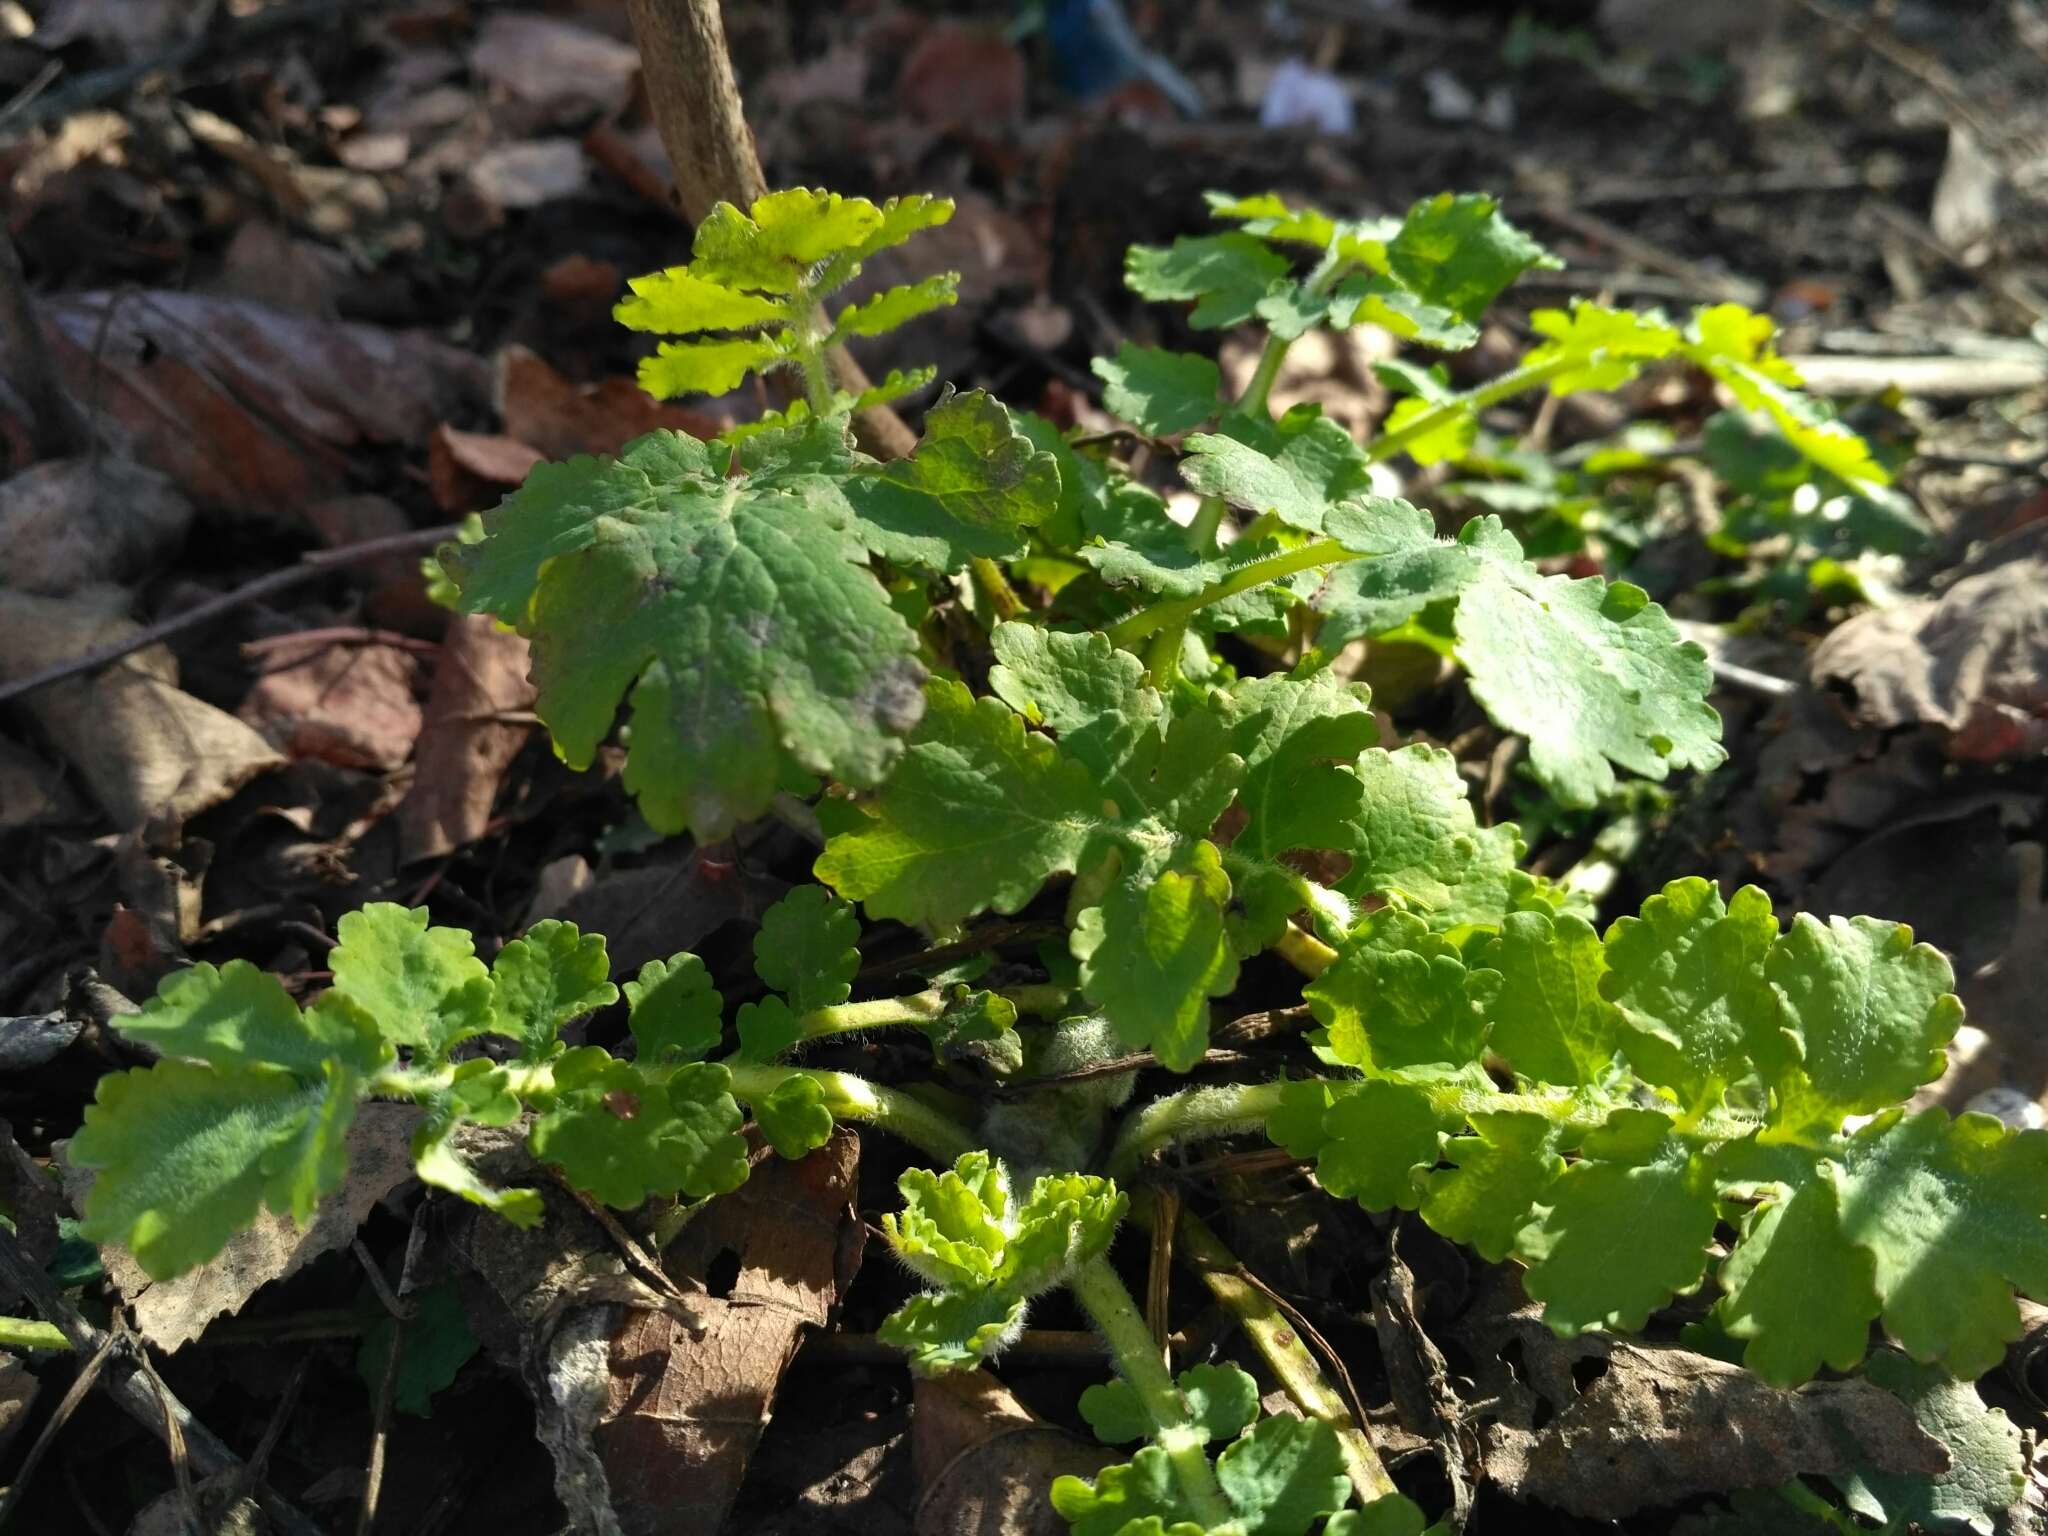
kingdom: Plantae
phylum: Tracheophyta
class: Magnoliopsida
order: Ranunculales
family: Papaveraceae
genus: Chelidonium
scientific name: Chelidonium majus
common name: Greater celandine
